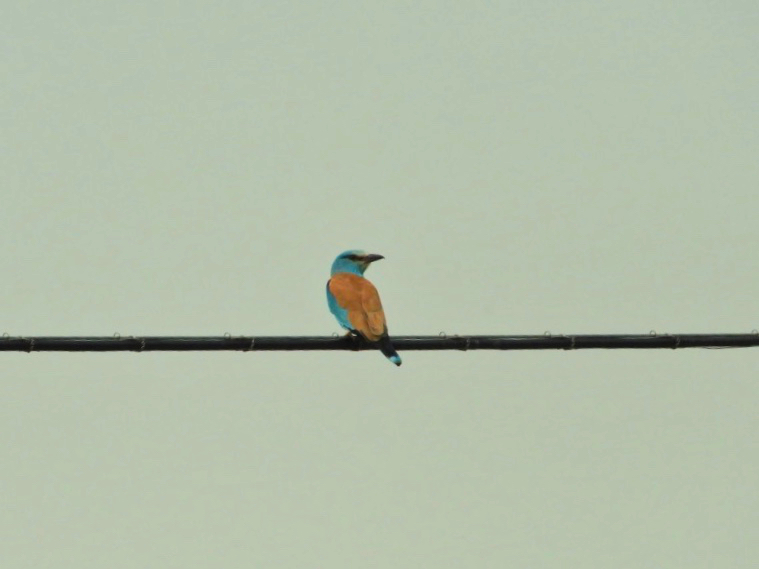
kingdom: Animalia
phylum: Chordata
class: Aves
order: Coraciiformes
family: Coraciidae
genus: Coracias
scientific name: Coracias garrulus
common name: European roller
